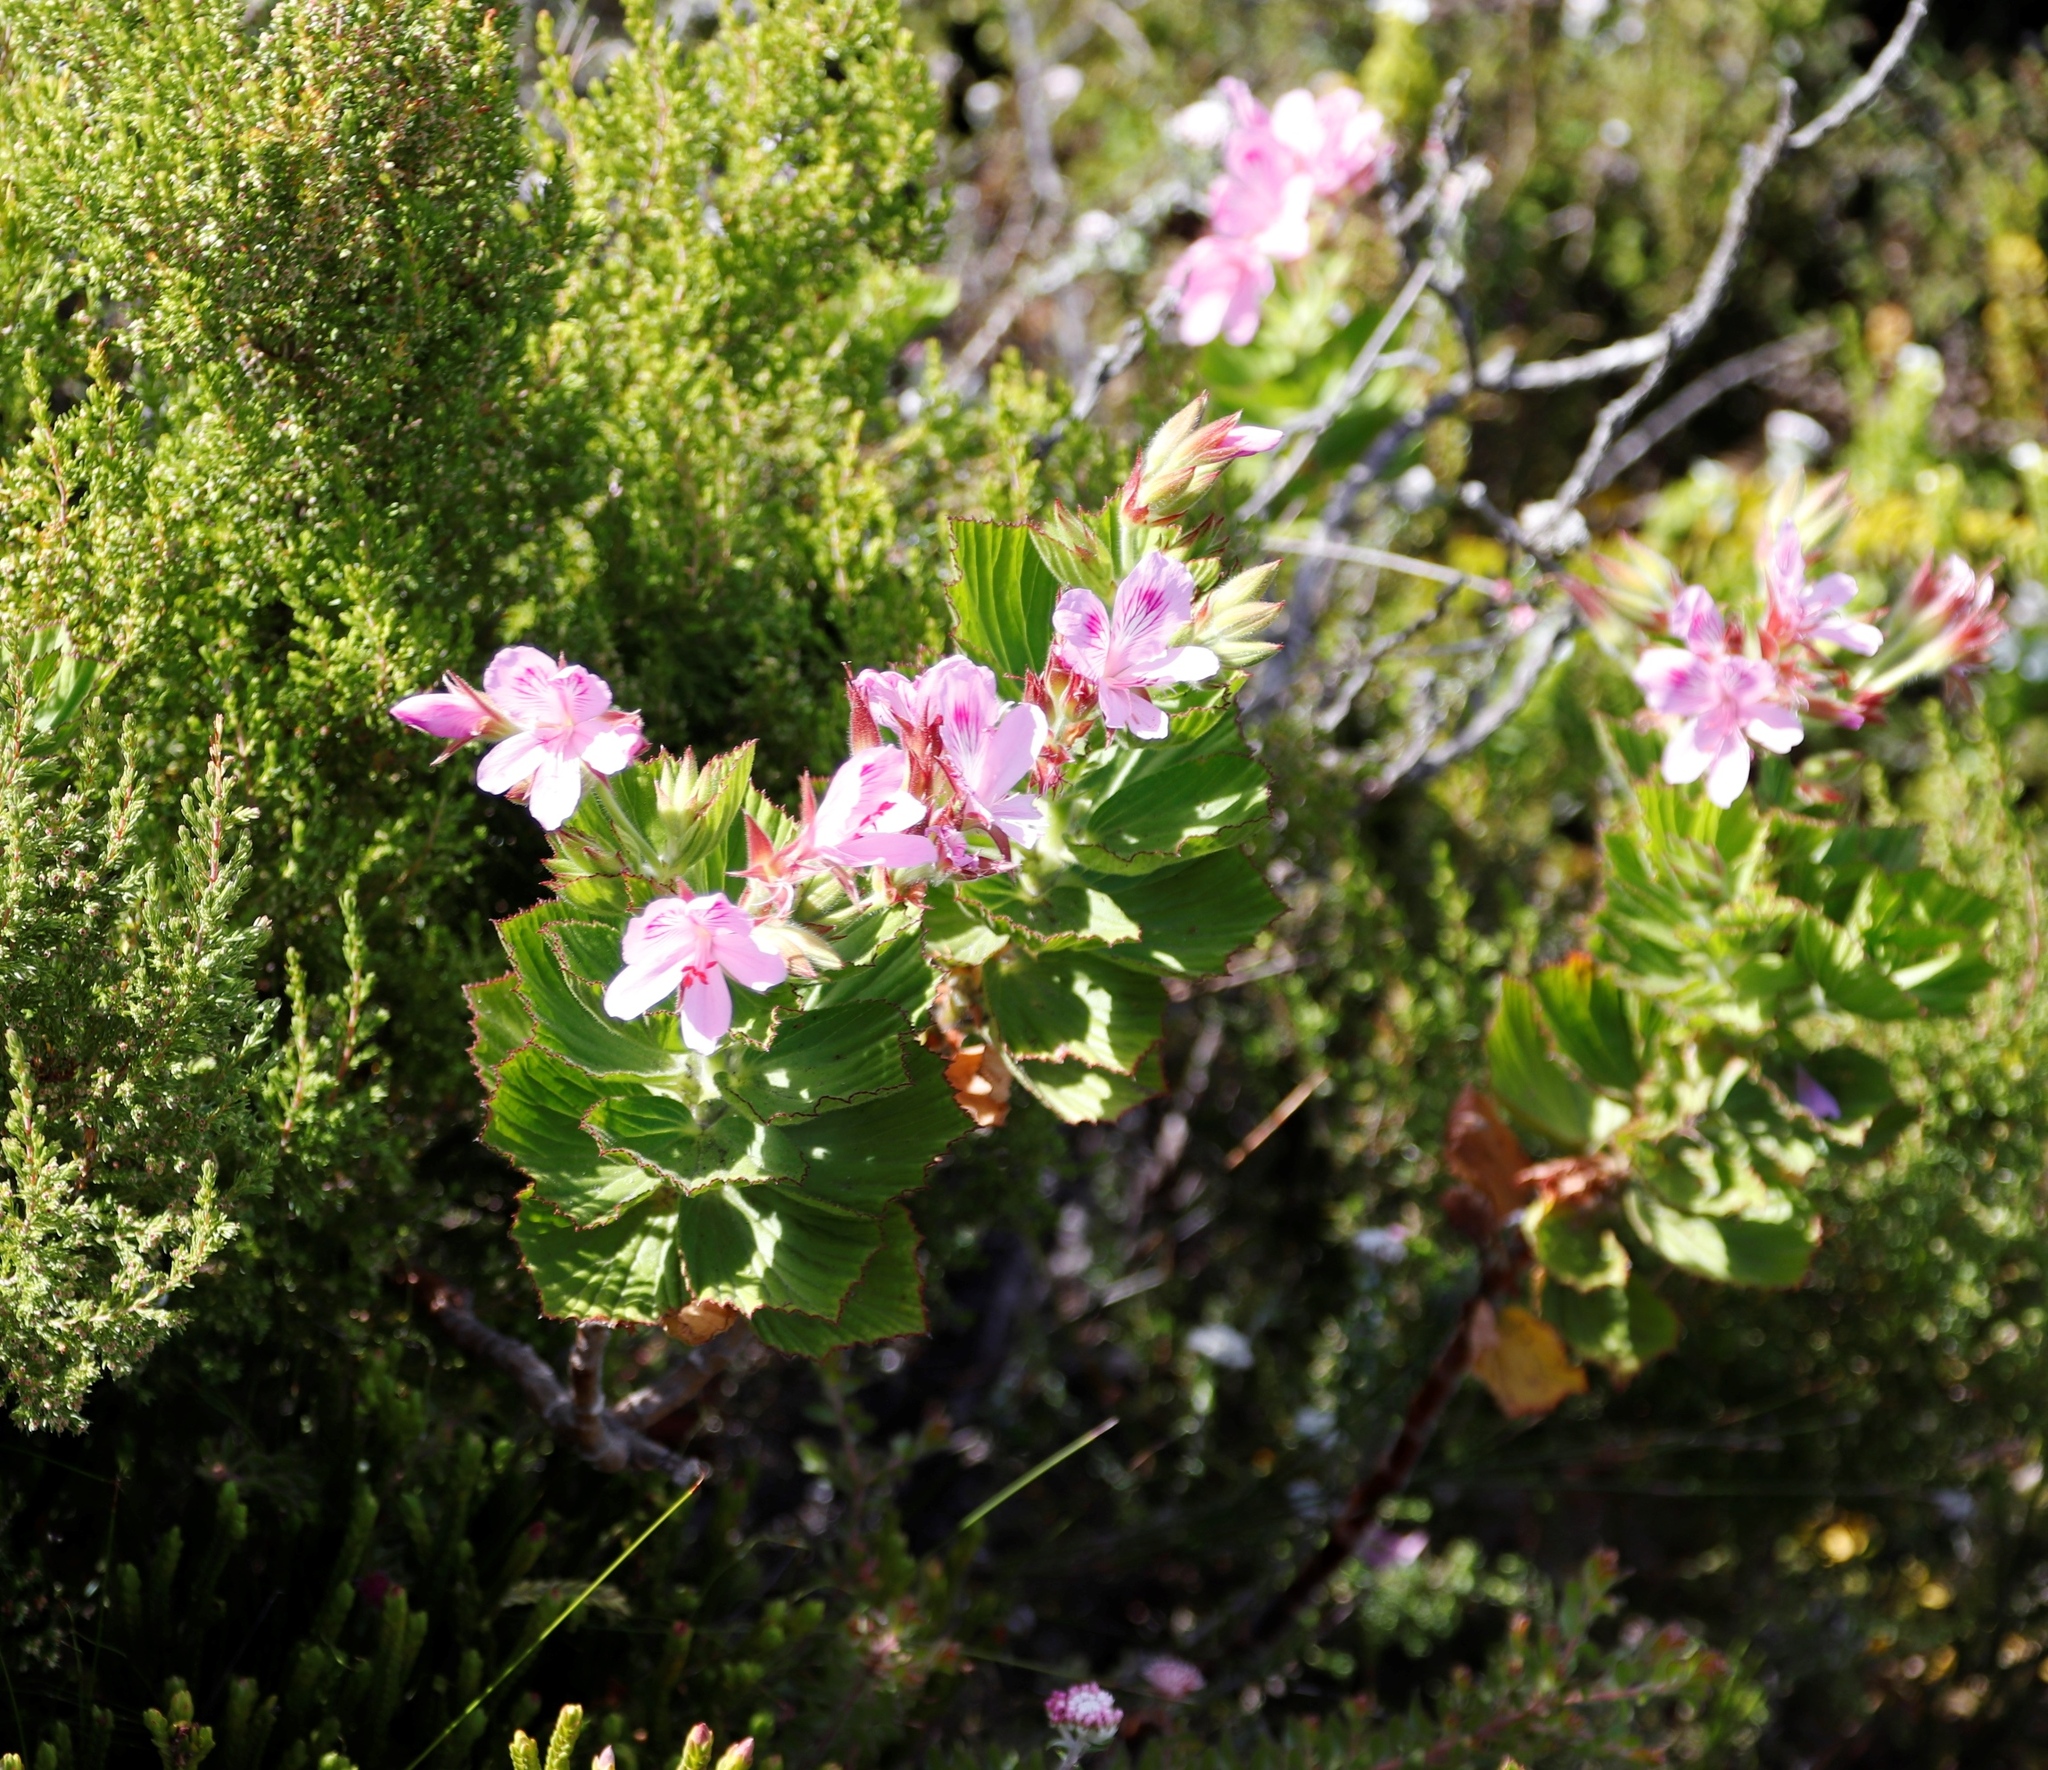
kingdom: Plantae
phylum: Tracheophyta
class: Magnoliopsida
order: Geraniales
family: Geraniaceae
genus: Pelargonium
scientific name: Pelargonium cucullatum
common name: Tree pelargonium
